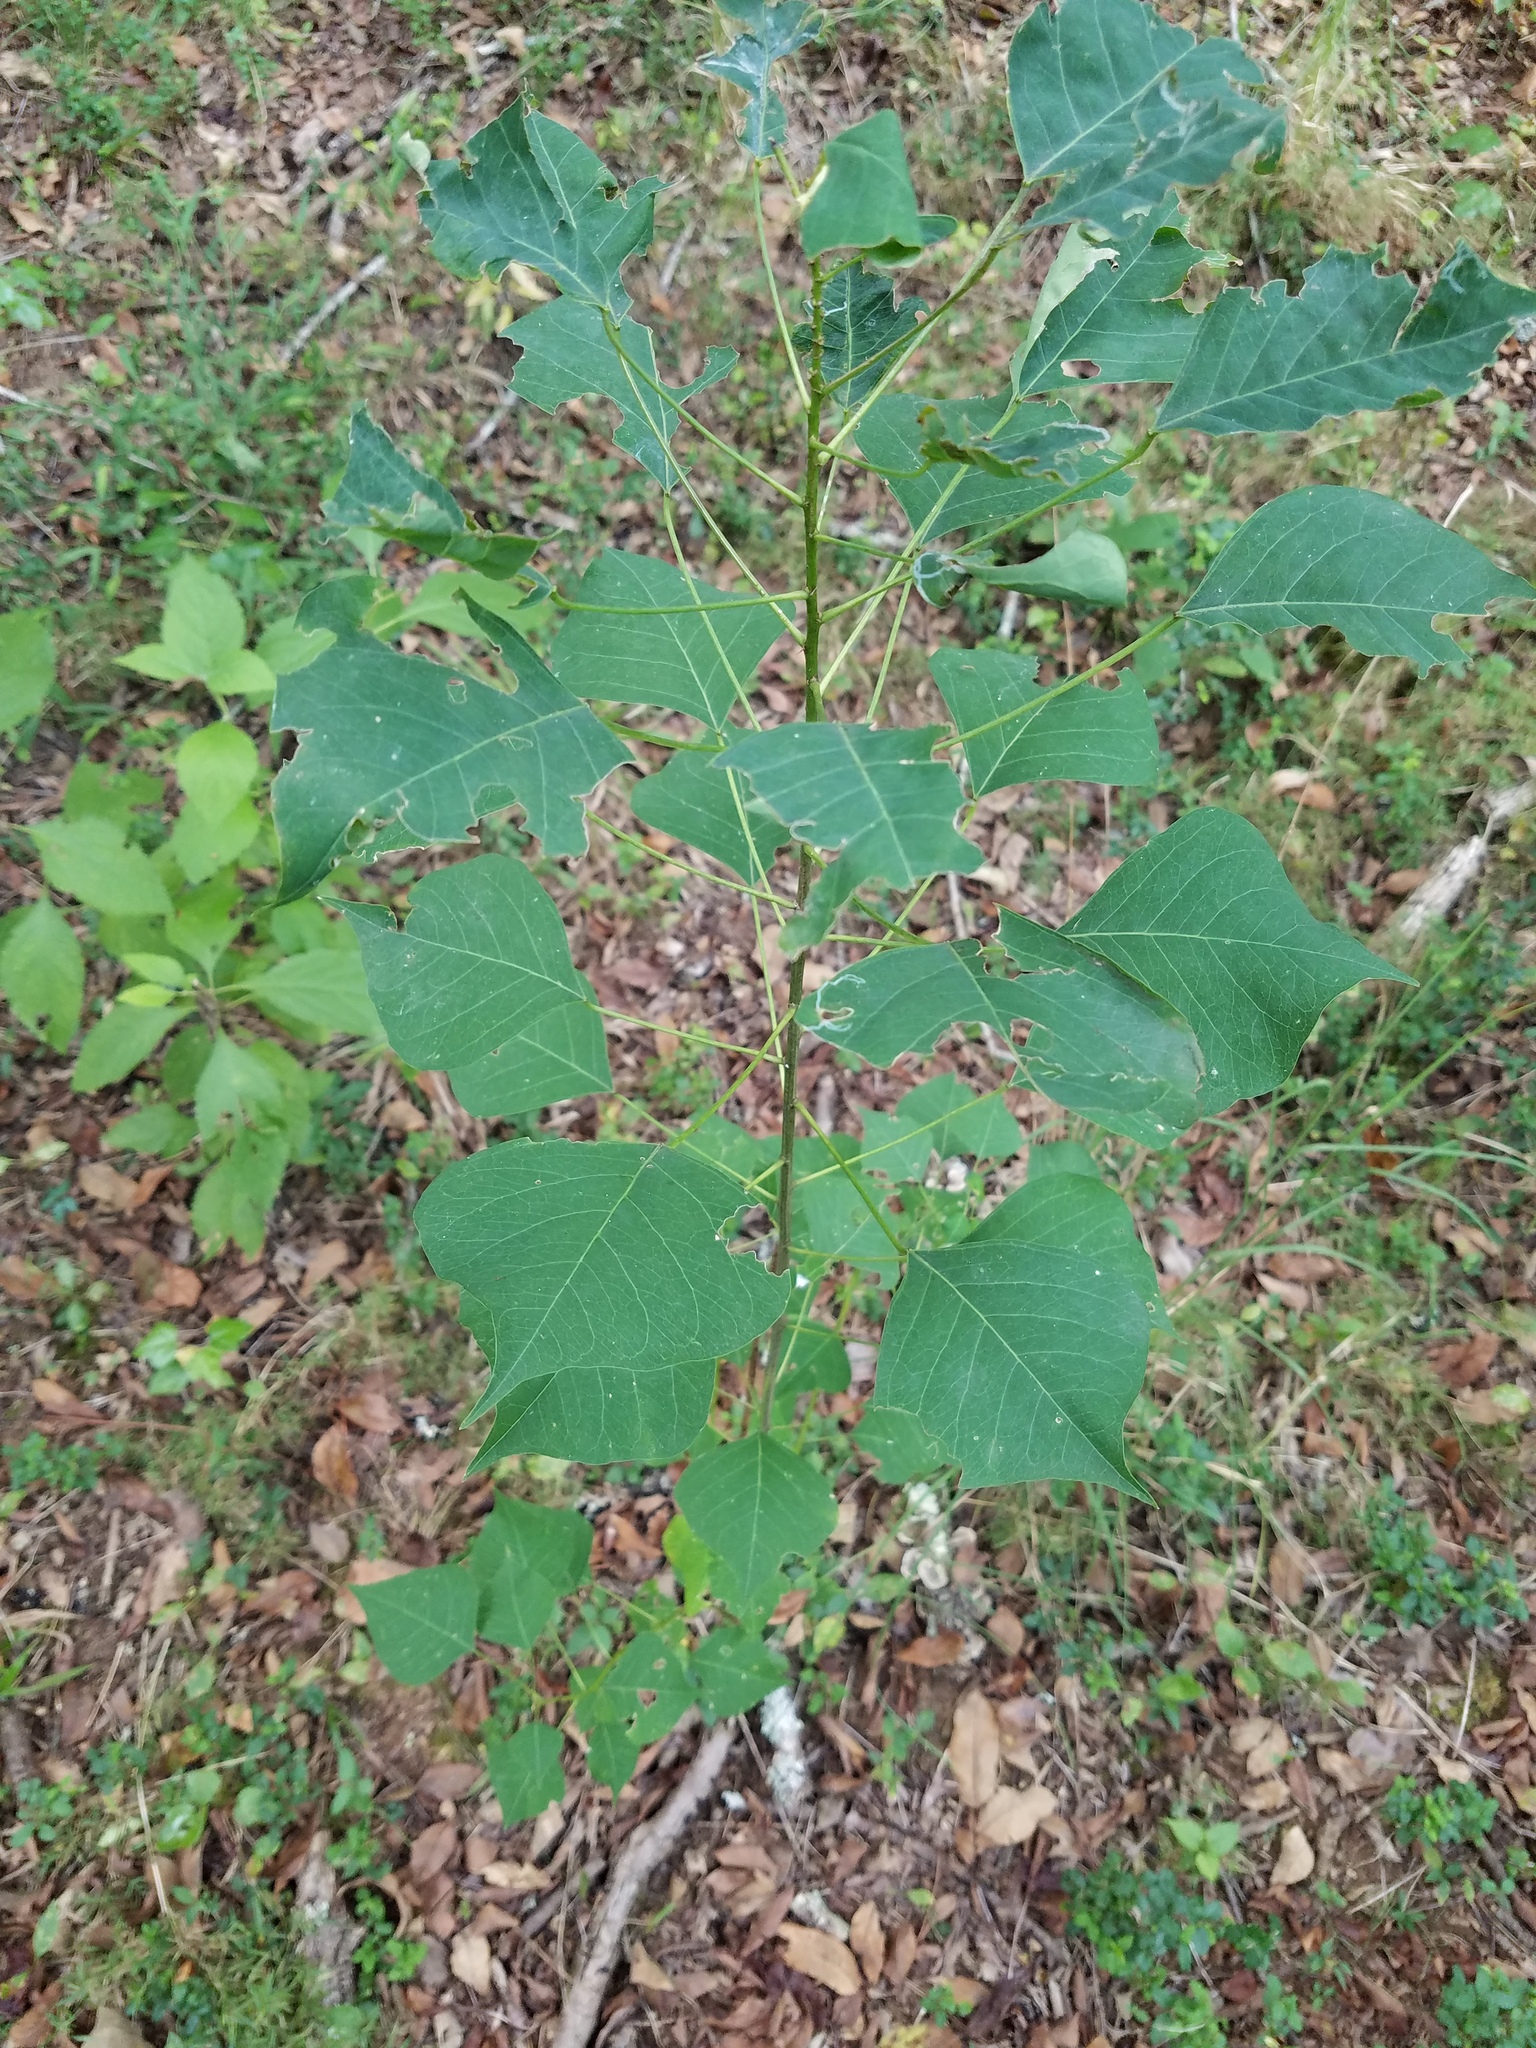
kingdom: Plantae
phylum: Tracheophyta
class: Magnoliopsida
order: Malpighiales
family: Euphorbiaceae
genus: Triadica
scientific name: Triadica sebifera
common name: Chinese tallow
